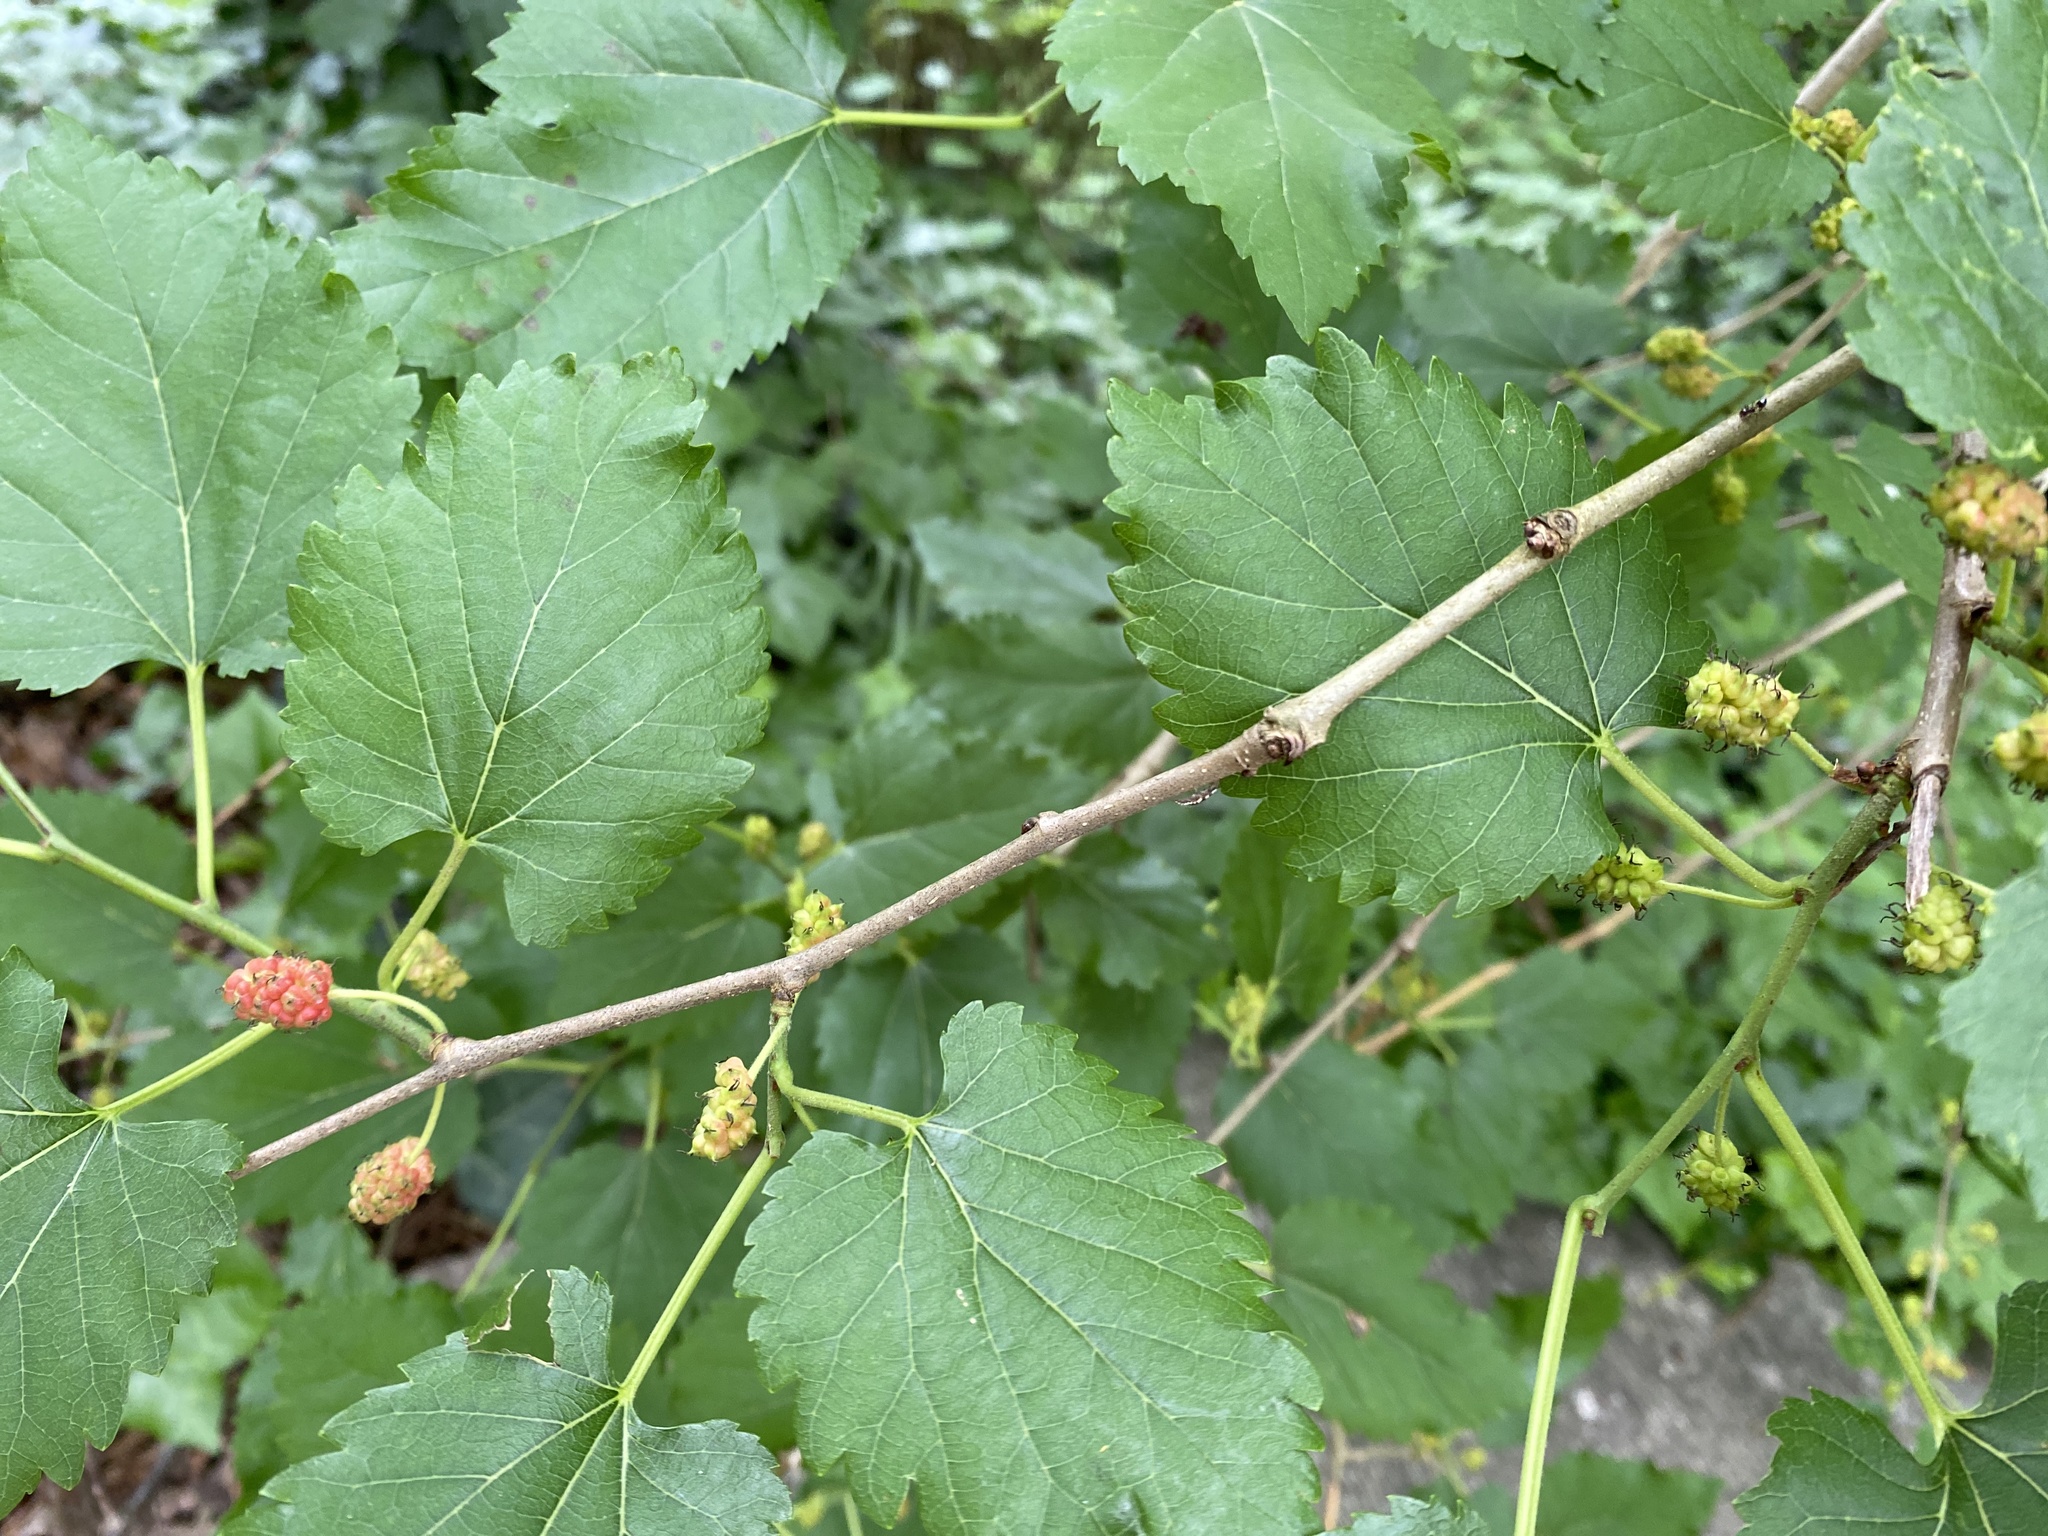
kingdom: Plantae
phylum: Tracheophyta
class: Magnoliopsida
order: Rosales
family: Moraceae
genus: Morus
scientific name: Morus alba
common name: White mulberry
